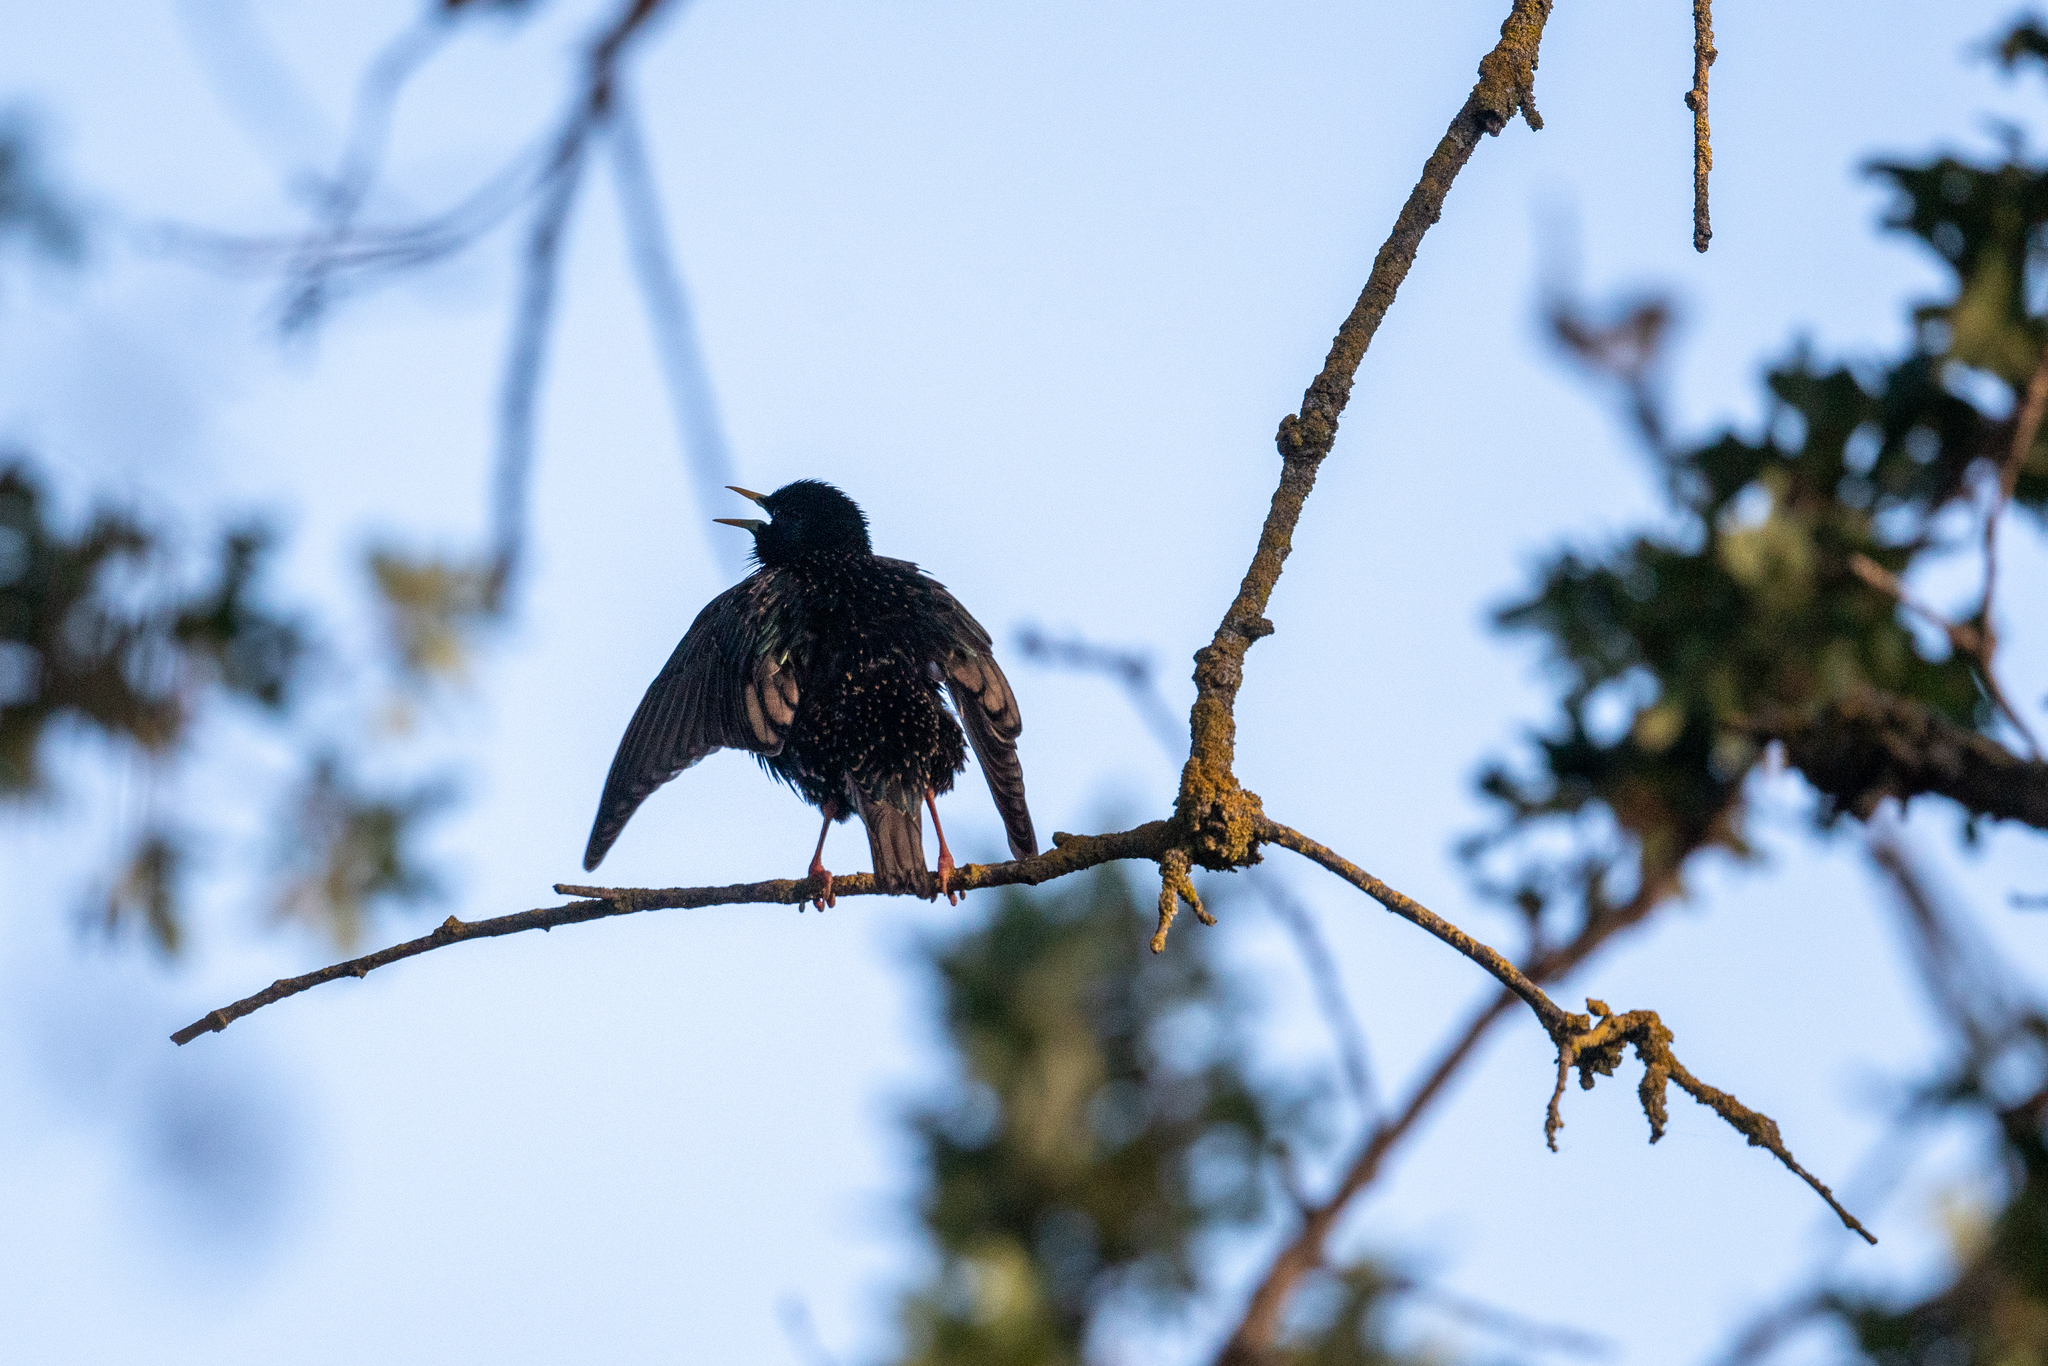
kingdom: Animalia
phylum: Chordata
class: Aves
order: Passeriformes
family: Sturnidae
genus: Sturnus
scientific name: Sturnus vulgaris
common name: Common starling
